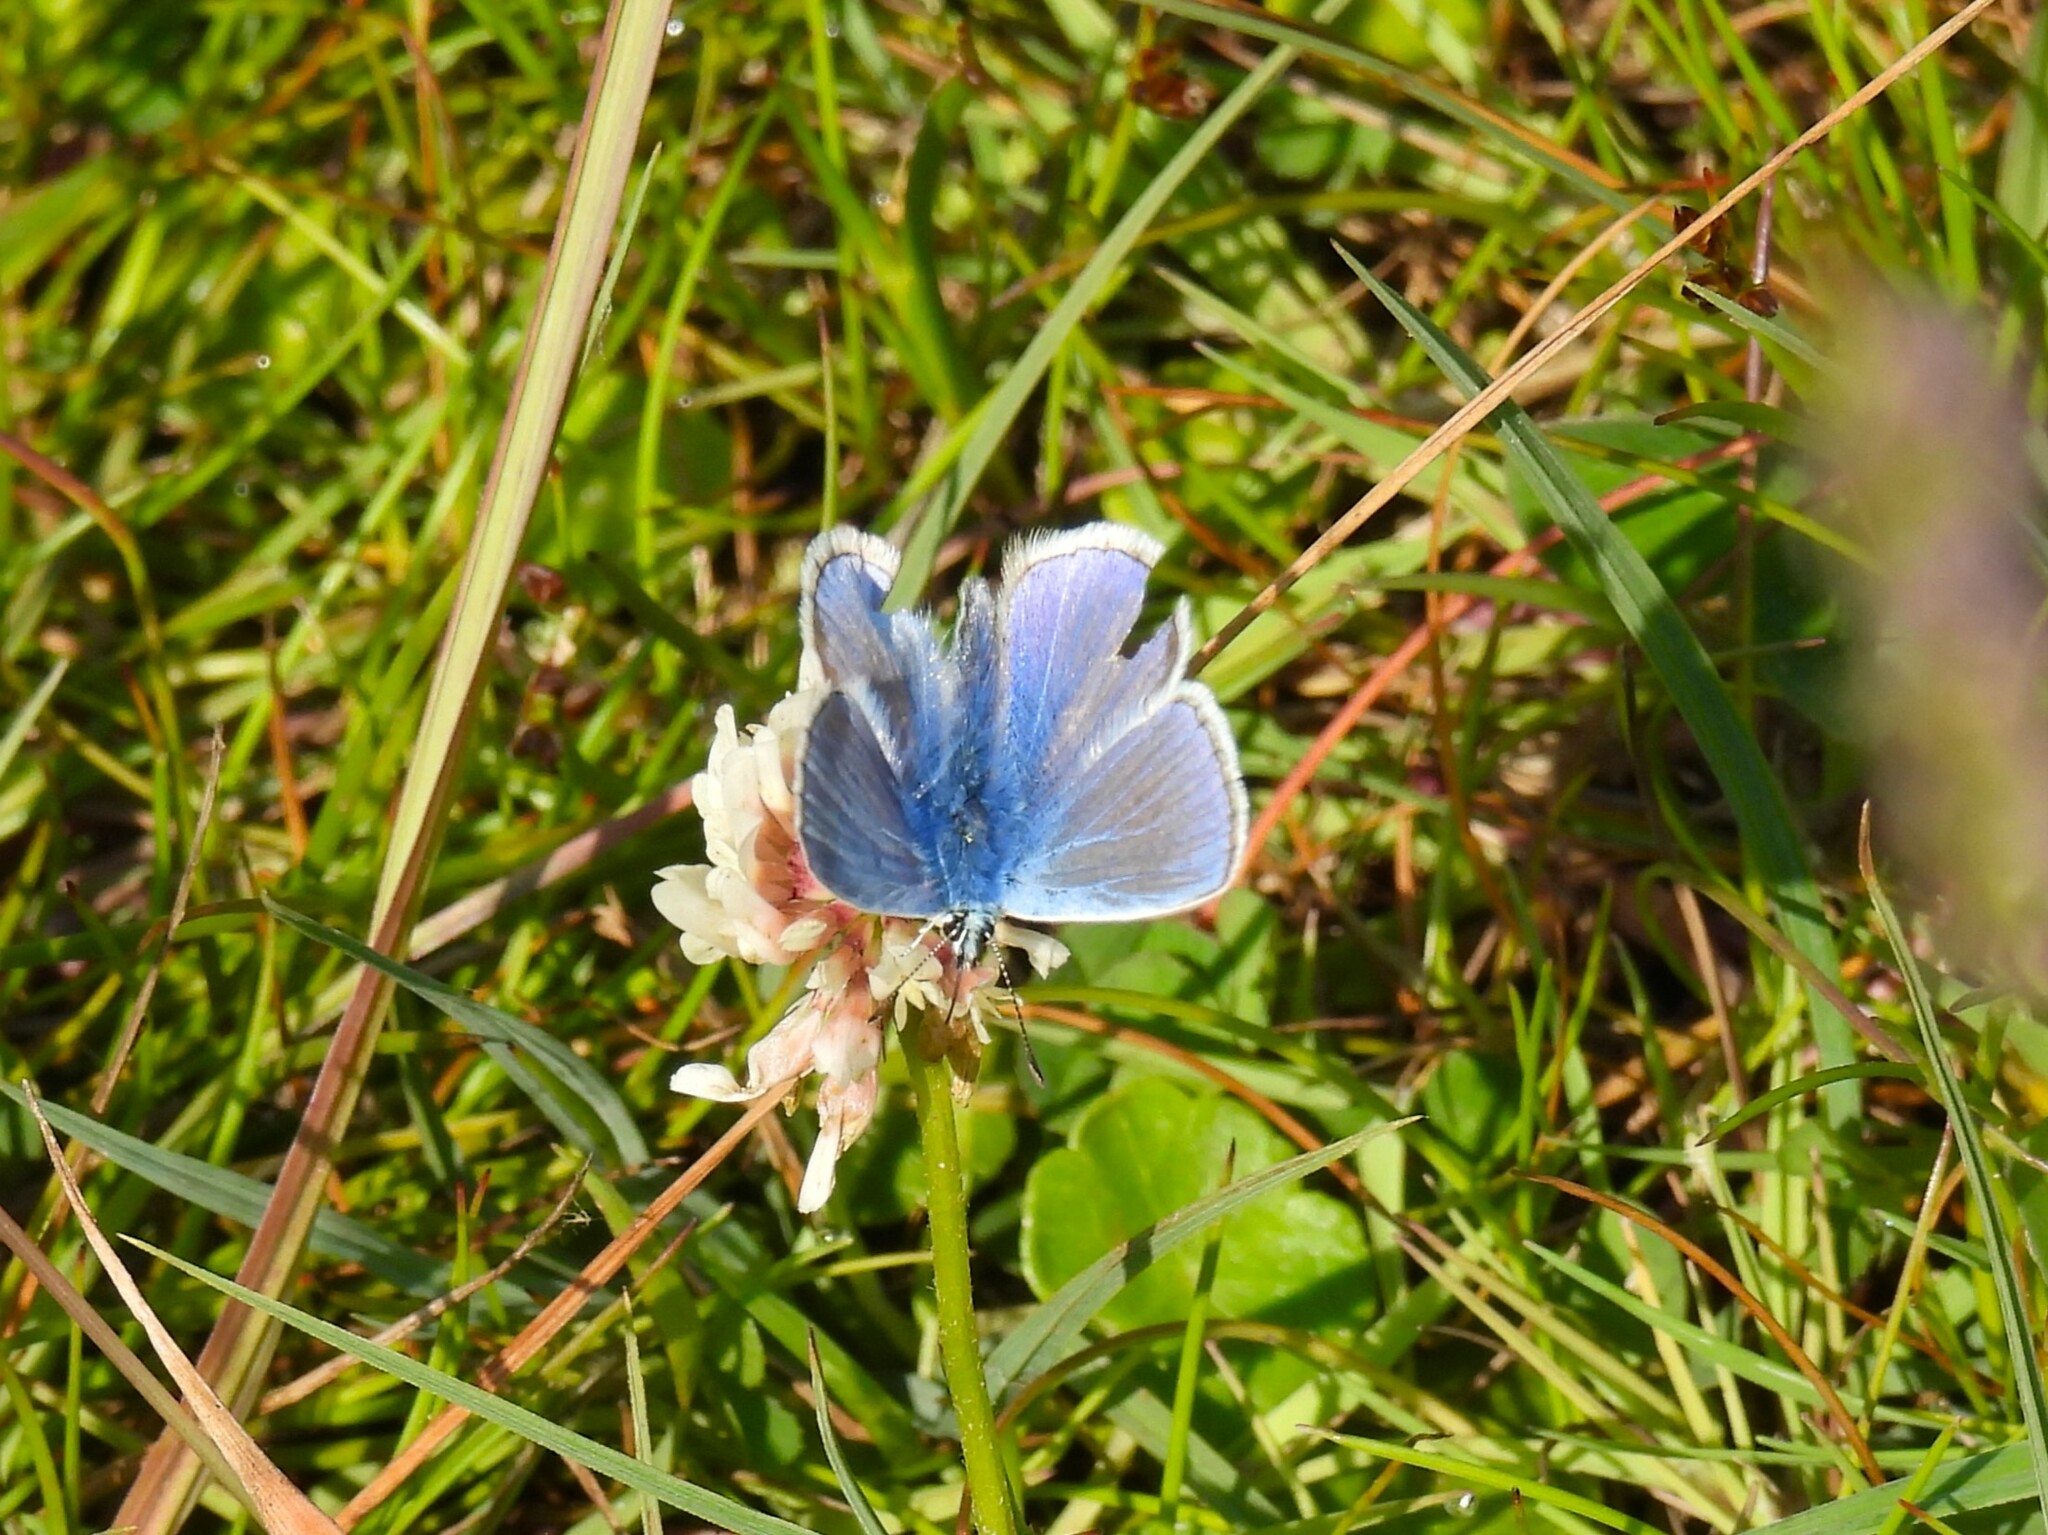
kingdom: Animalia
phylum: Arthropoda
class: Insecta
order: Lepidoptera
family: Lycaenidae
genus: Polyommatus
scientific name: Polyommatus icarus
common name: Common blue
